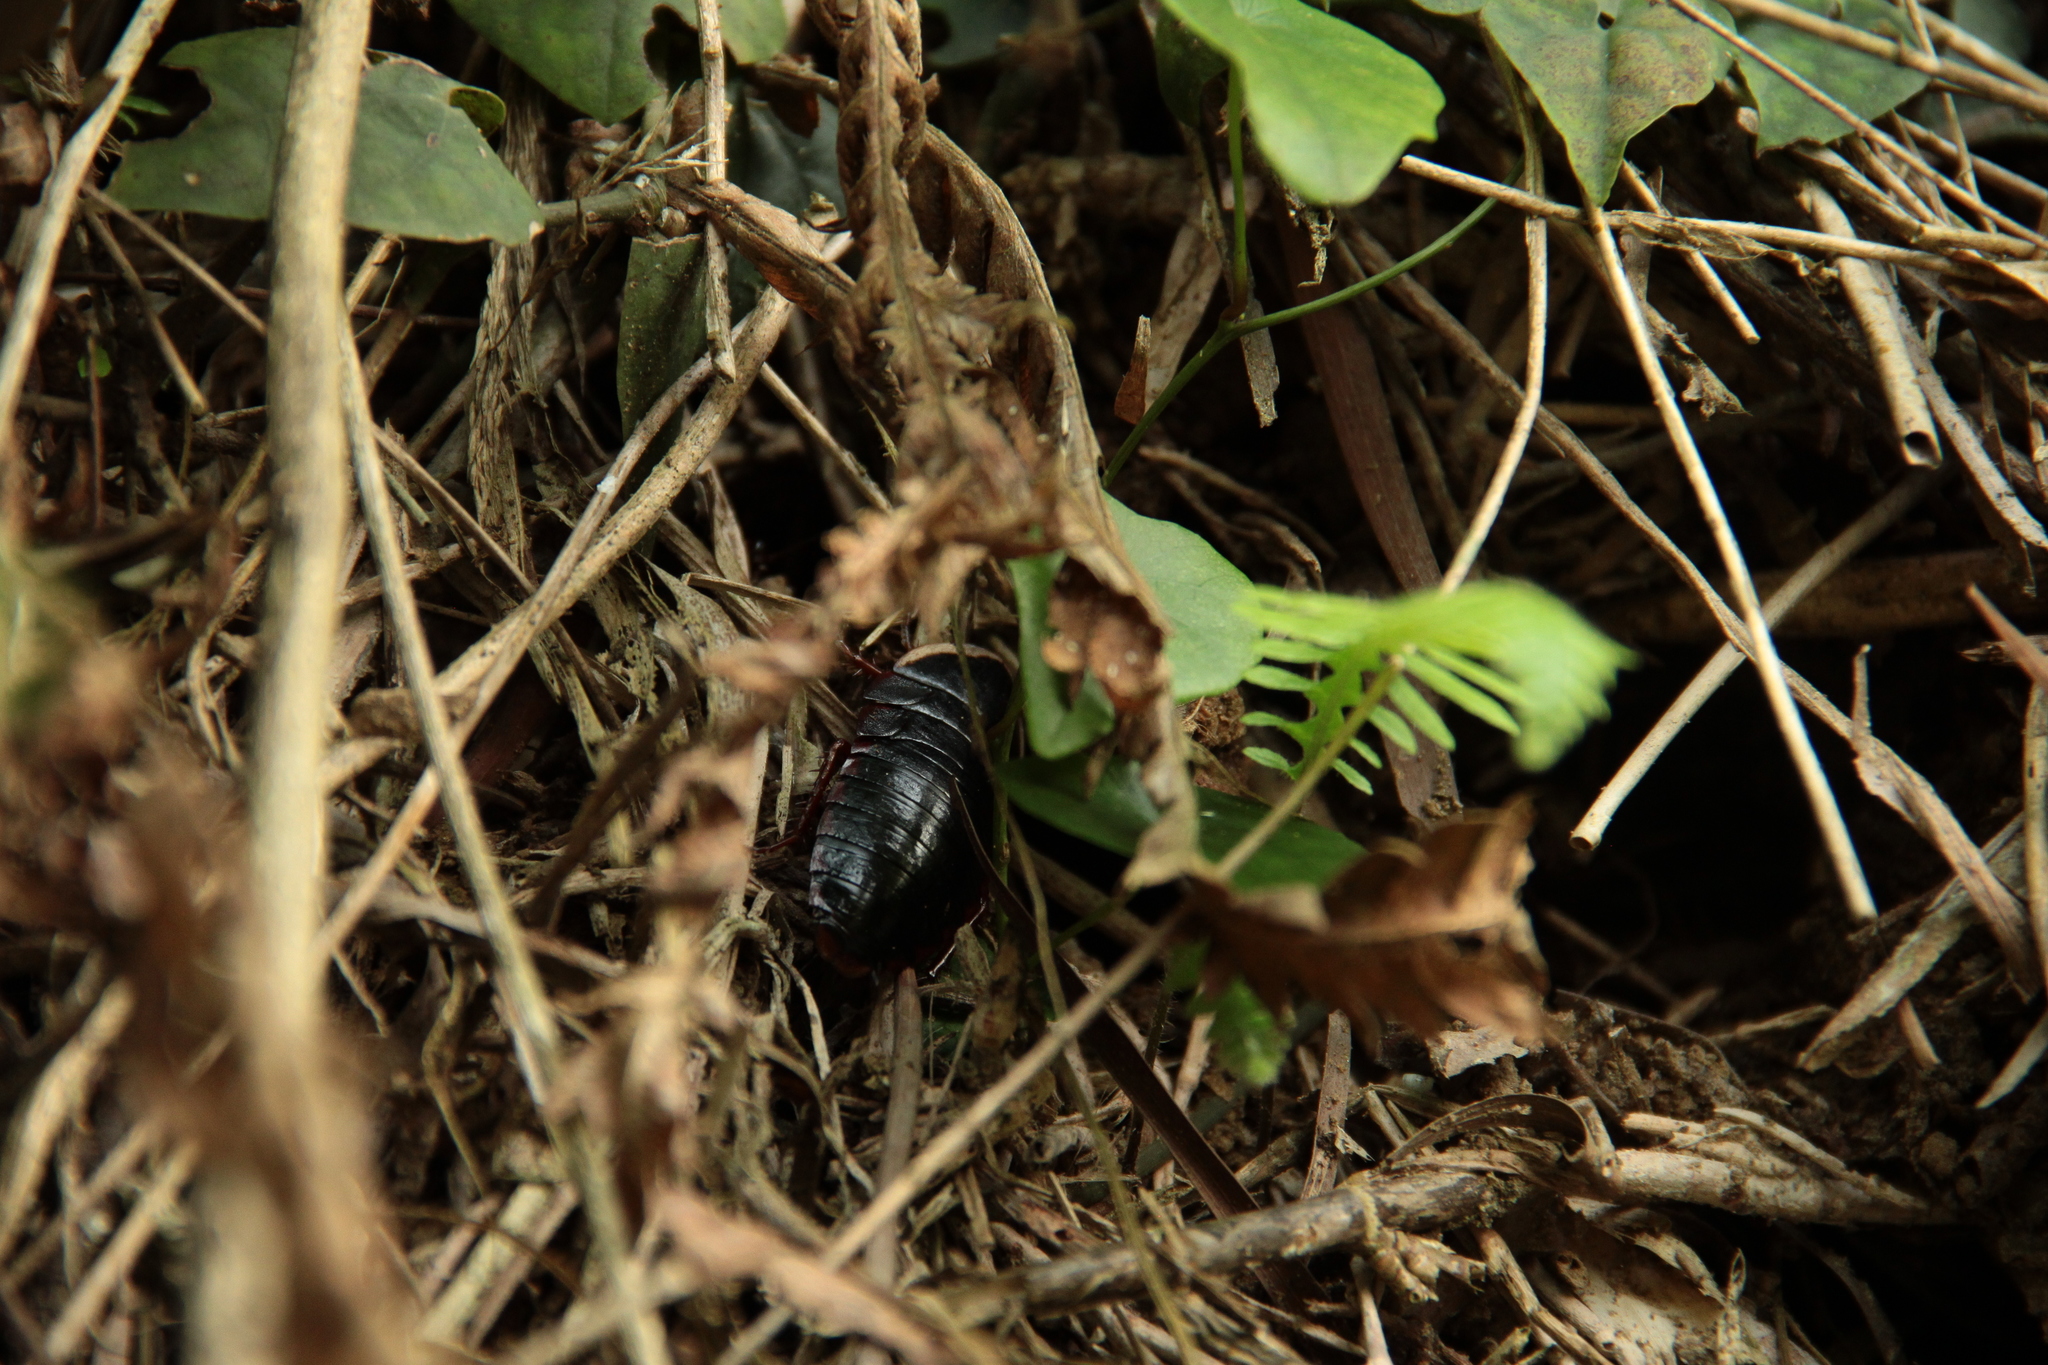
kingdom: Animalia
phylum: Arthropoda
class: Insecta
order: Blattodea
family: Blaberidae
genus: Opisthoplatia
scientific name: Opisthoplatia orientalis
